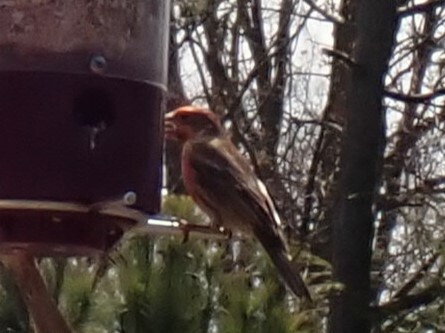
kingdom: Animalia
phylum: Chordata
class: Aves
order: Passeriformes
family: Fringillidae
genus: Haemorhous
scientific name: Haemorhous mexicanus
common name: House finch
